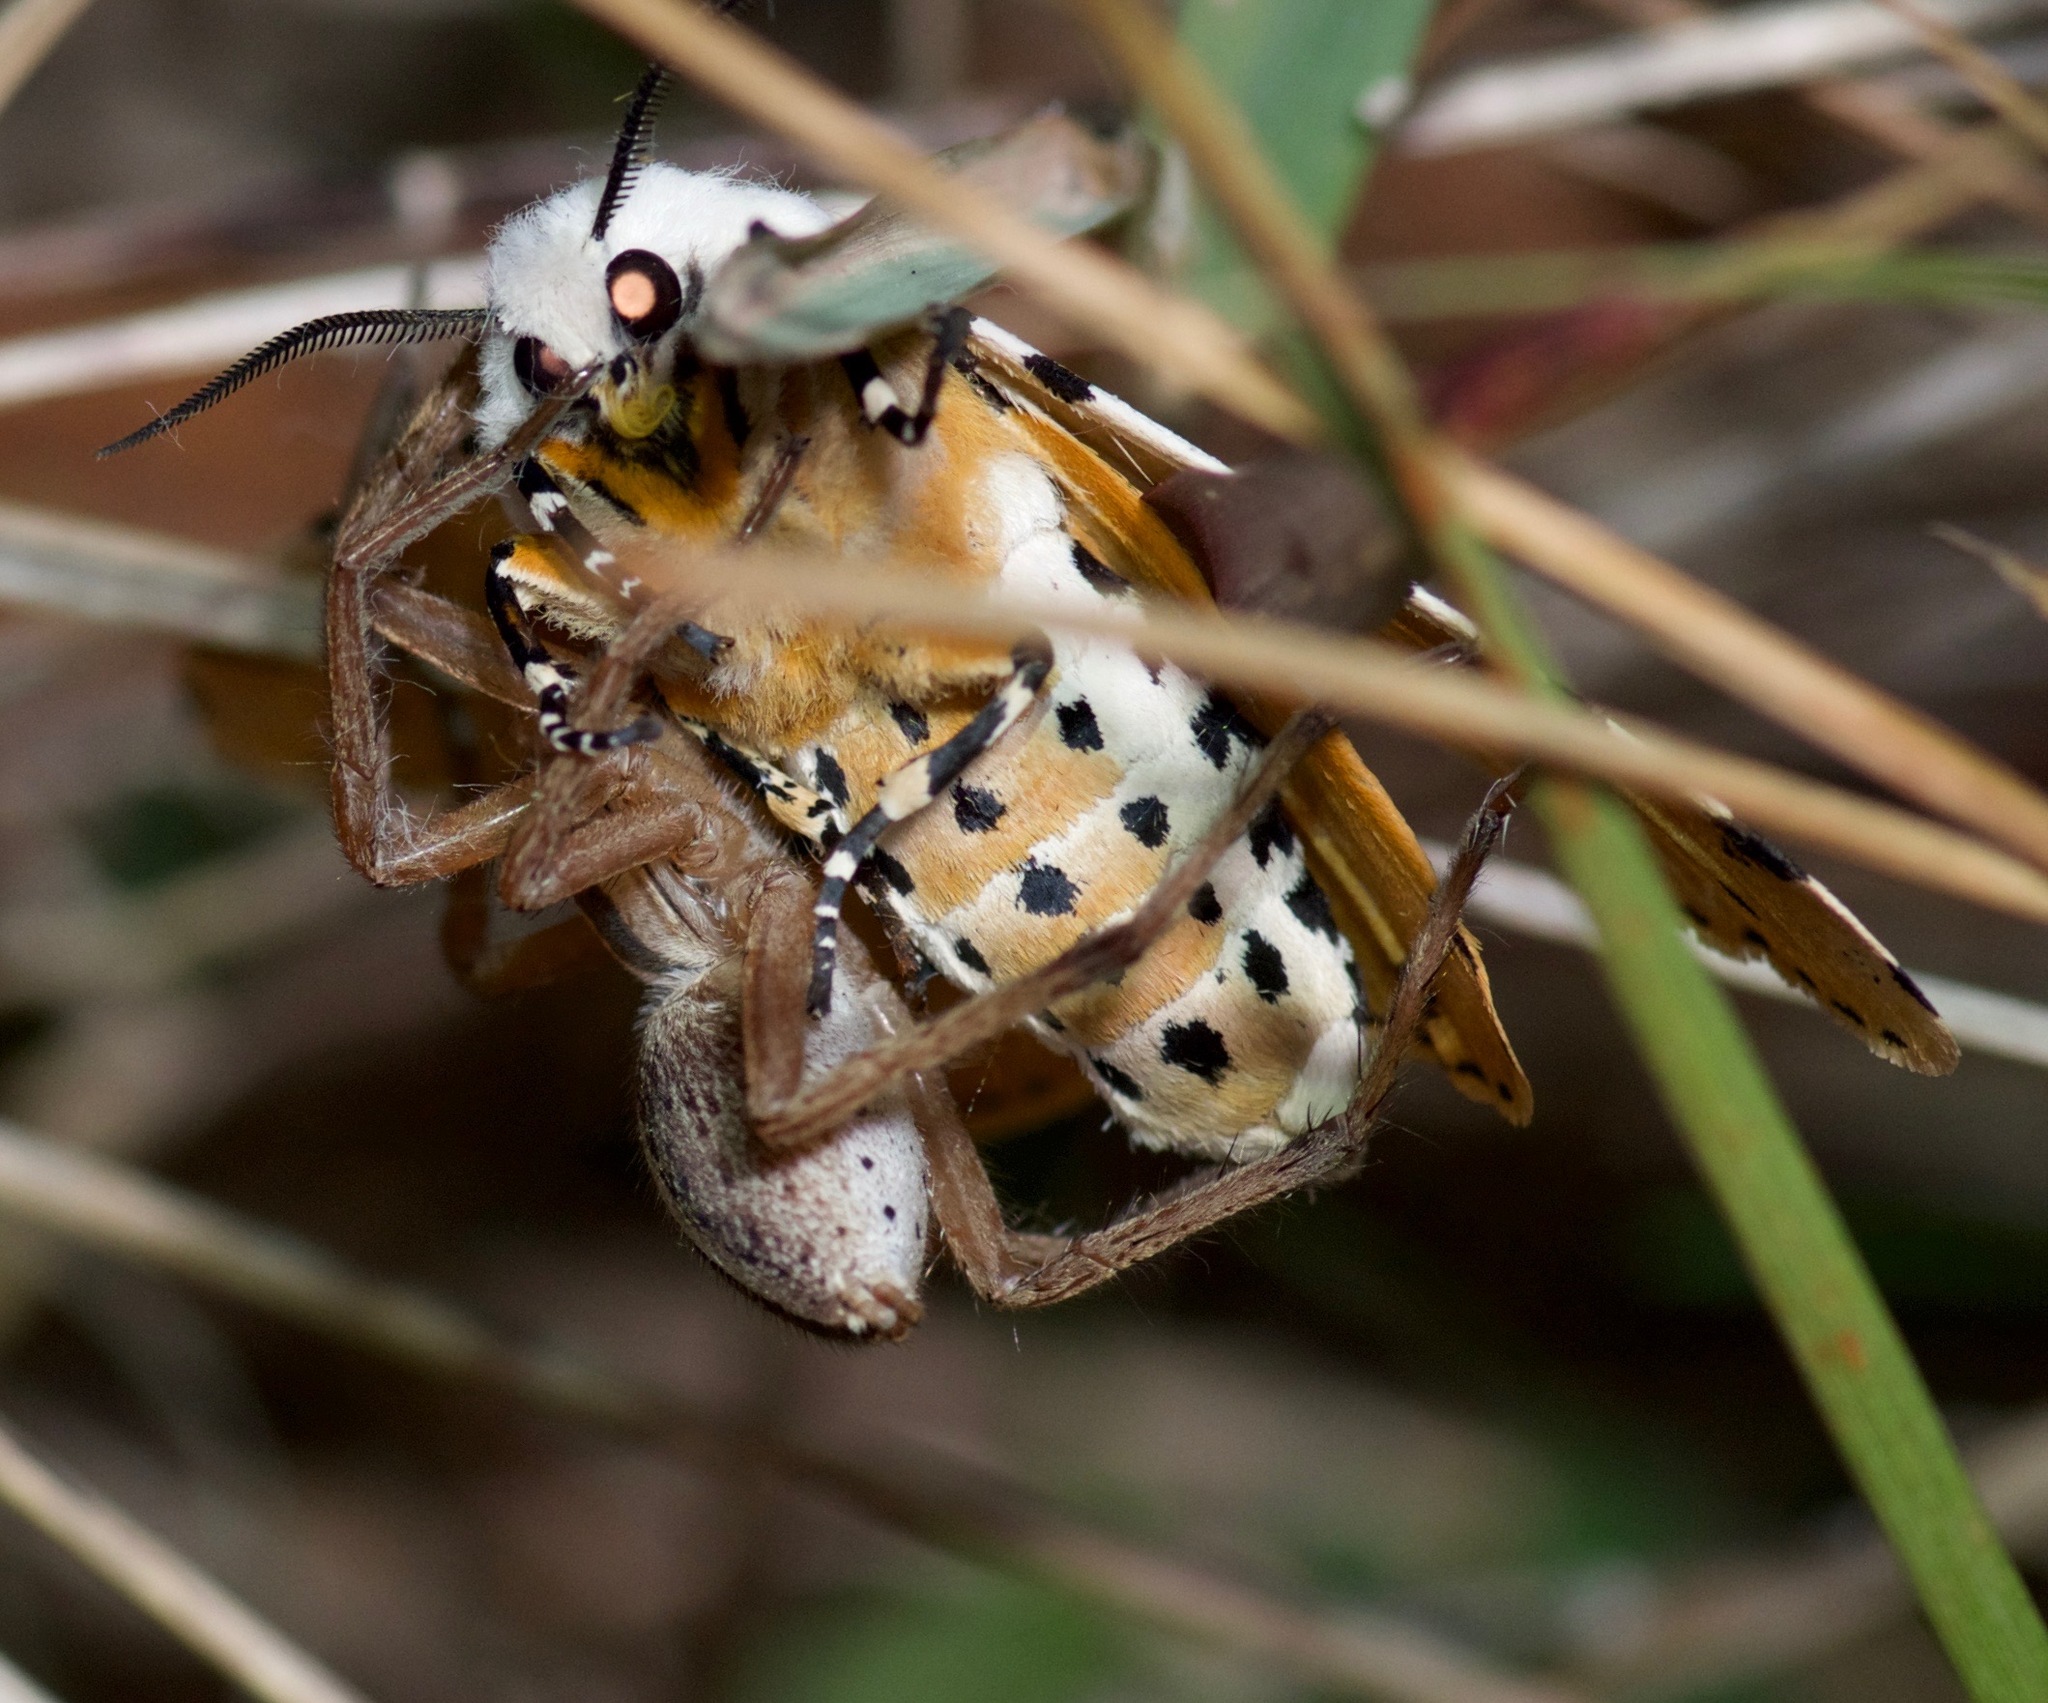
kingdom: Animalia
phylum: Arthropoda
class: Arachnida
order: Araneae
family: Lycosidae
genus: Rabidosa
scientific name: Rabidosa punctulata
